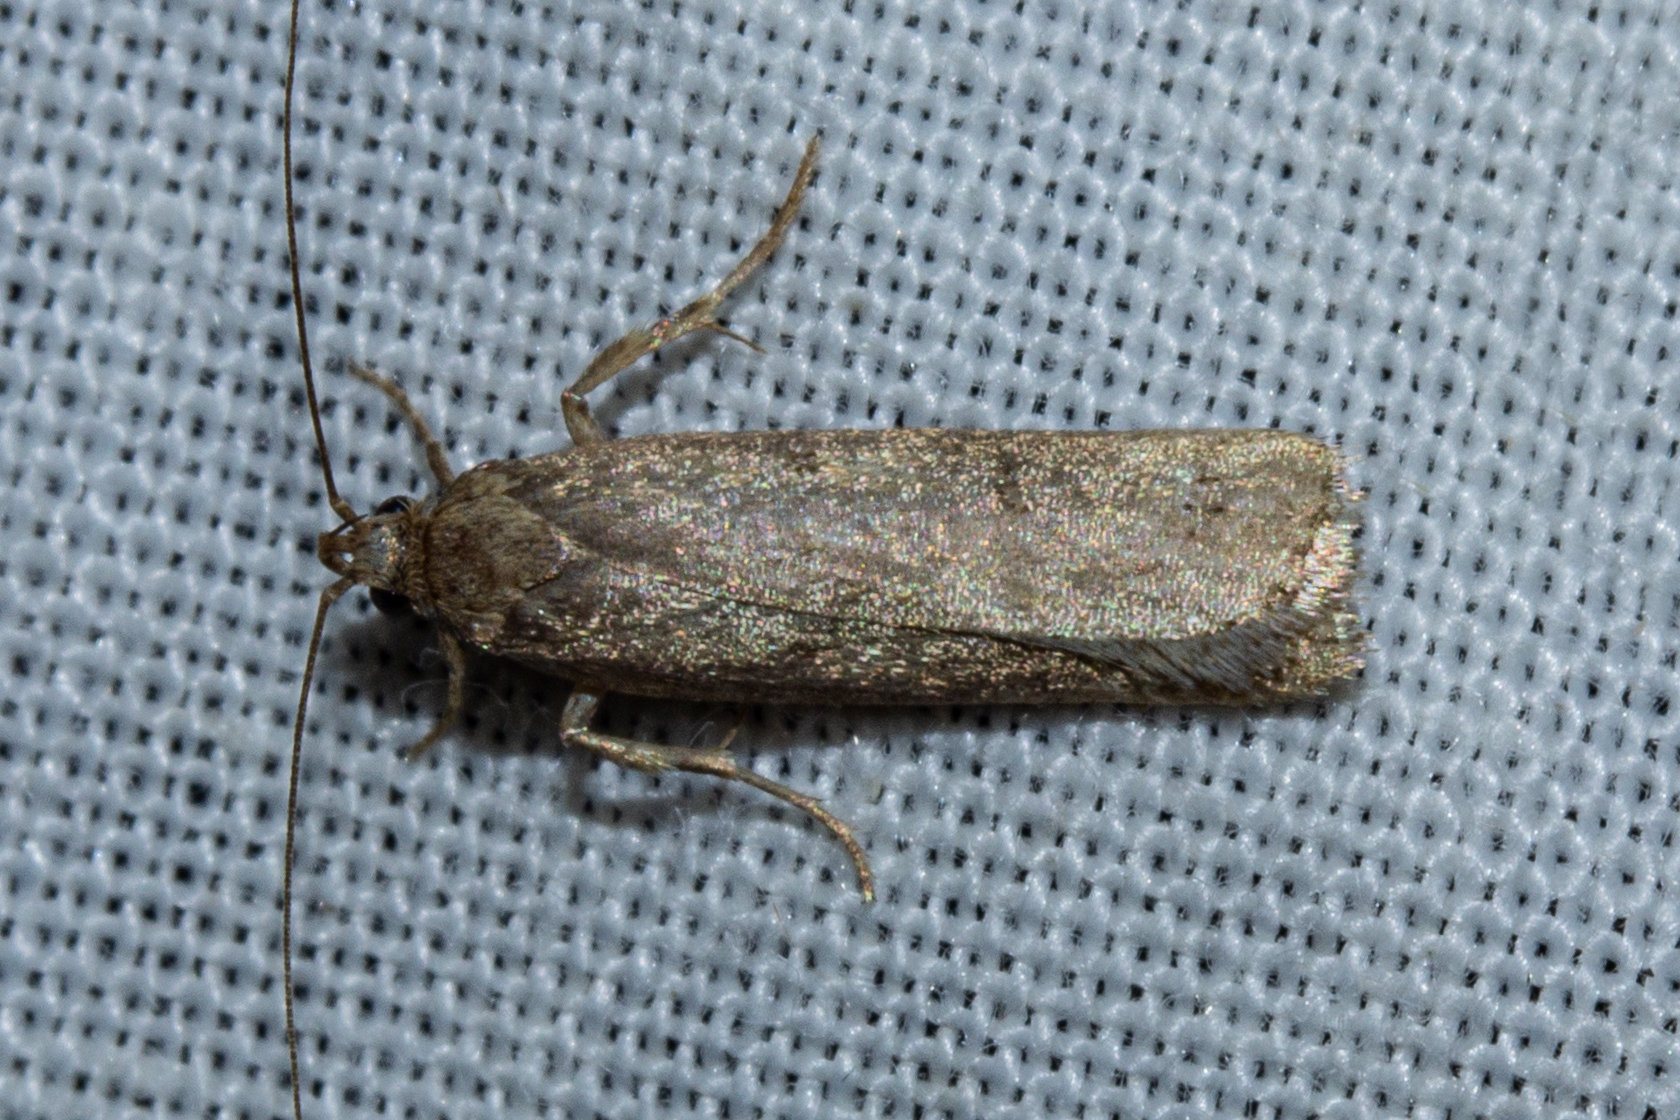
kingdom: Animalia
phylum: Arthropoda
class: Insecta
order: Lepidoptera
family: Depressariidae
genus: Phaeosaces
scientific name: Phaeosaces apocrypta
